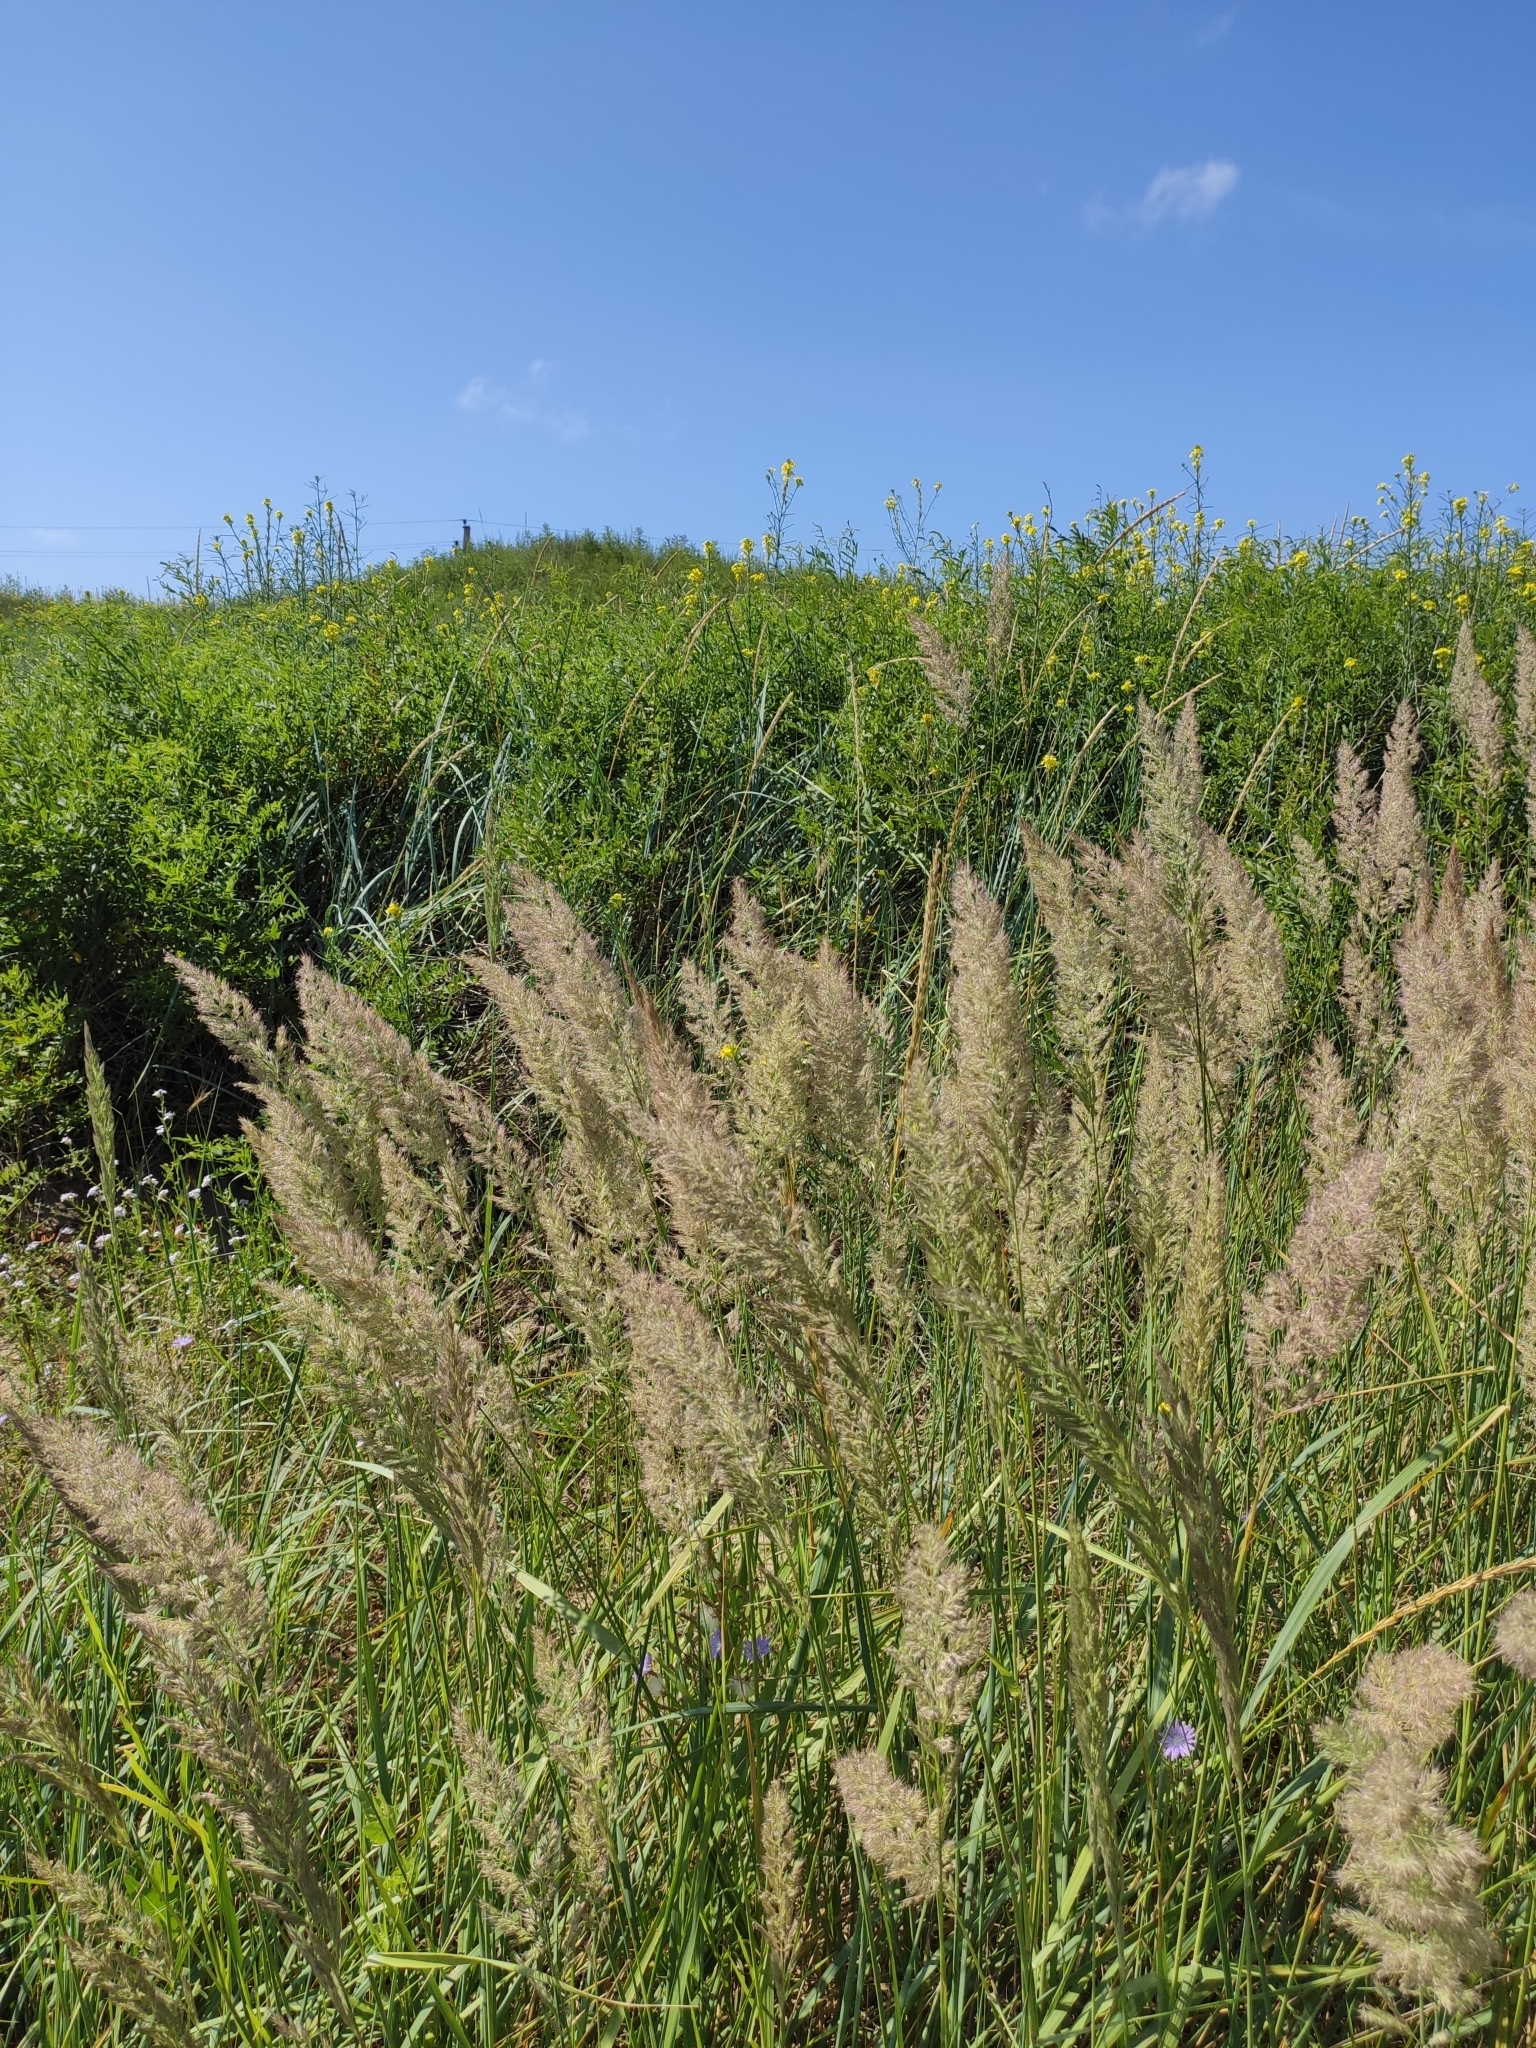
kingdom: Plantae
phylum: Tracheophyta
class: Liliopsida
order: Poales
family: Poaceae
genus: Calamagrostis
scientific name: Calamagrostis epigejos
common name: Wood small-reed
